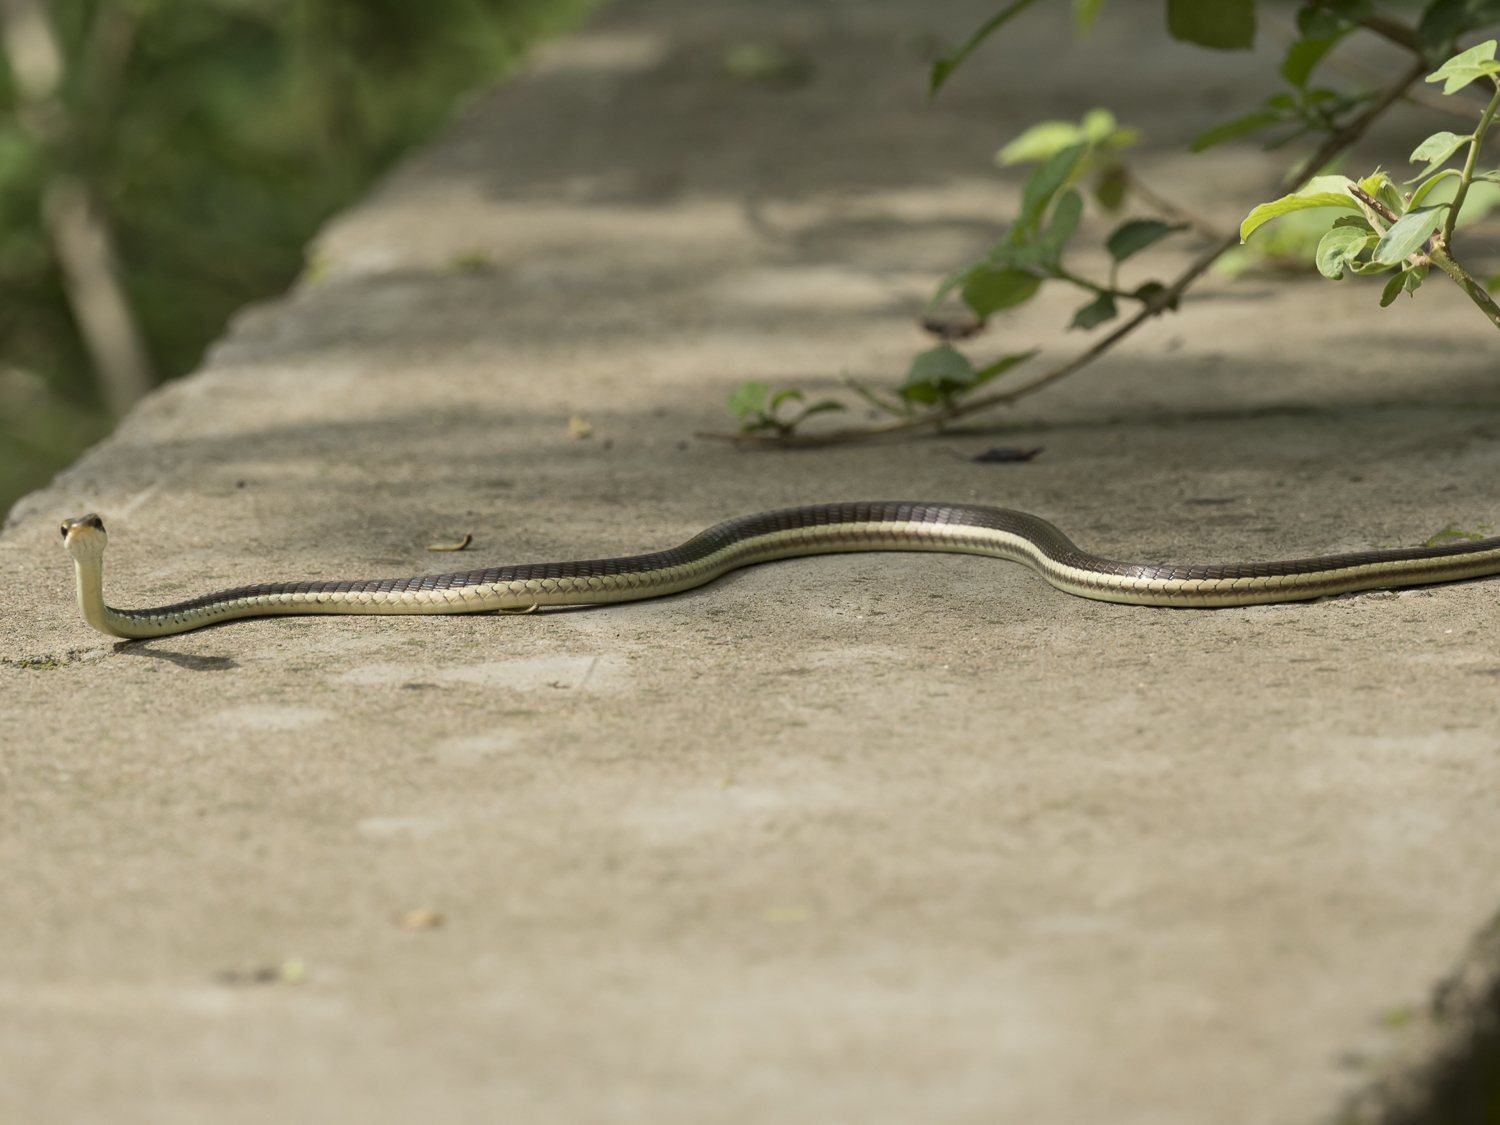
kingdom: Animalia
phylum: Chordata
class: Squamata
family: Colubridae
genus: Dendrelaphis
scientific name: Dendrelaphis tristis
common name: Daudin's bronzeback
